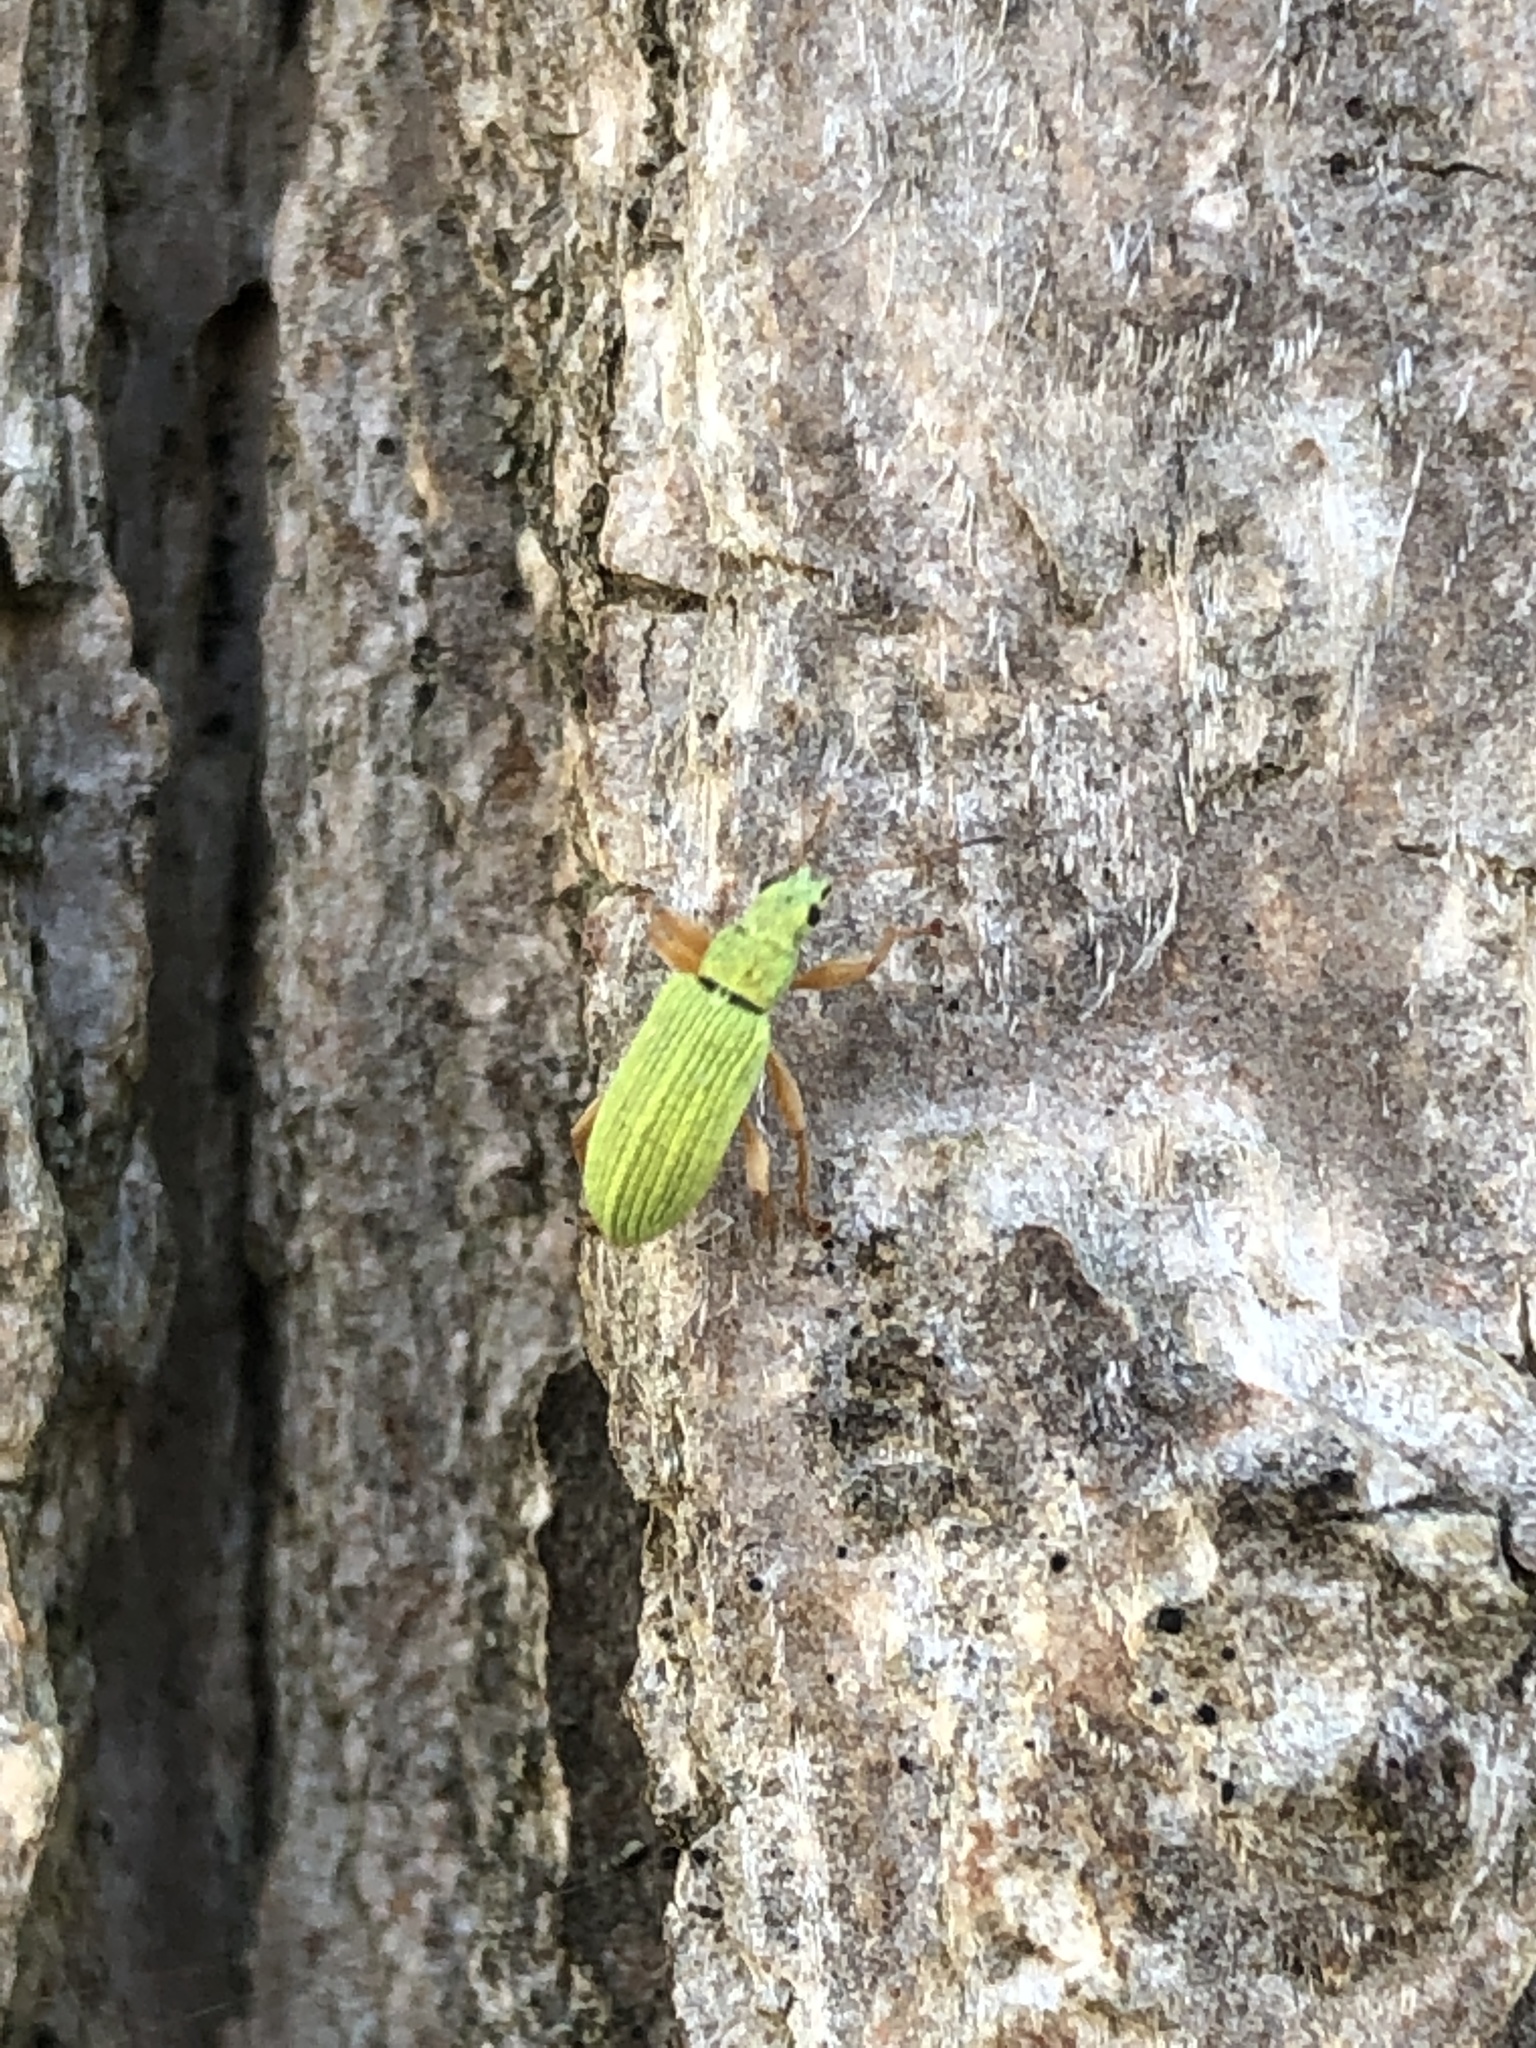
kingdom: Animalia
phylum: Arthropoda
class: Insecta
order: Coleoptera
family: Curculionidae
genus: Polydrusus
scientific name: Polydrusus impressifrons
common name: Weevil
